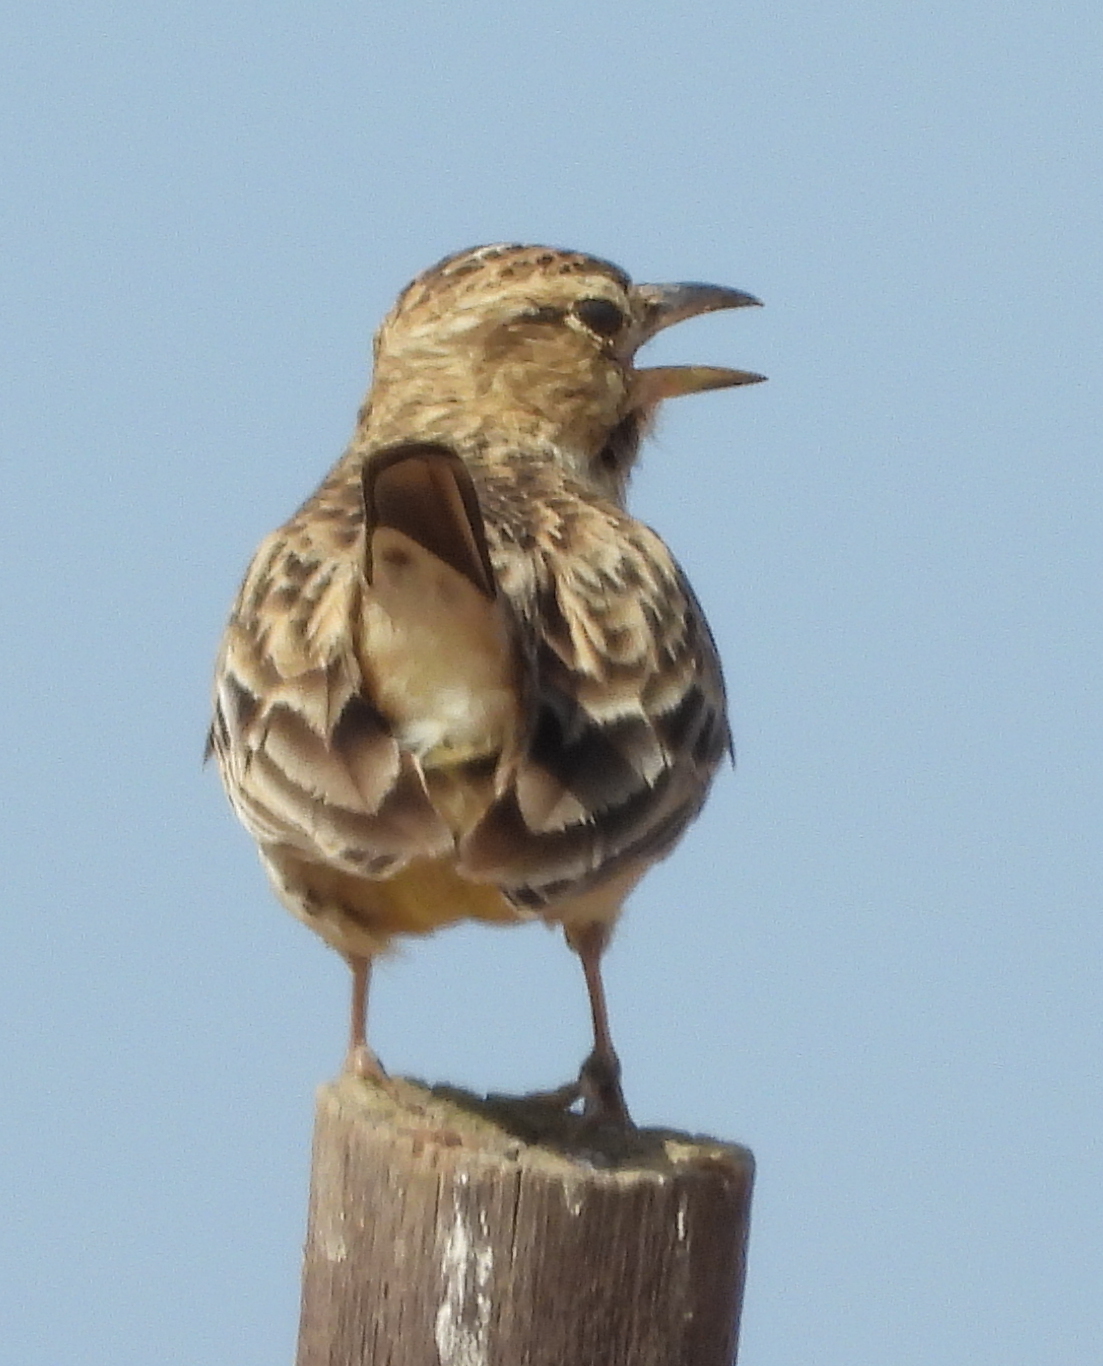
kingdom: Animalia
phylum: Chordata
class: Aves
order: Passeriformes
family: Alaudidae
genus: Galerida
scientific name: Galerida magnirostris
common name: Large-billed lark
